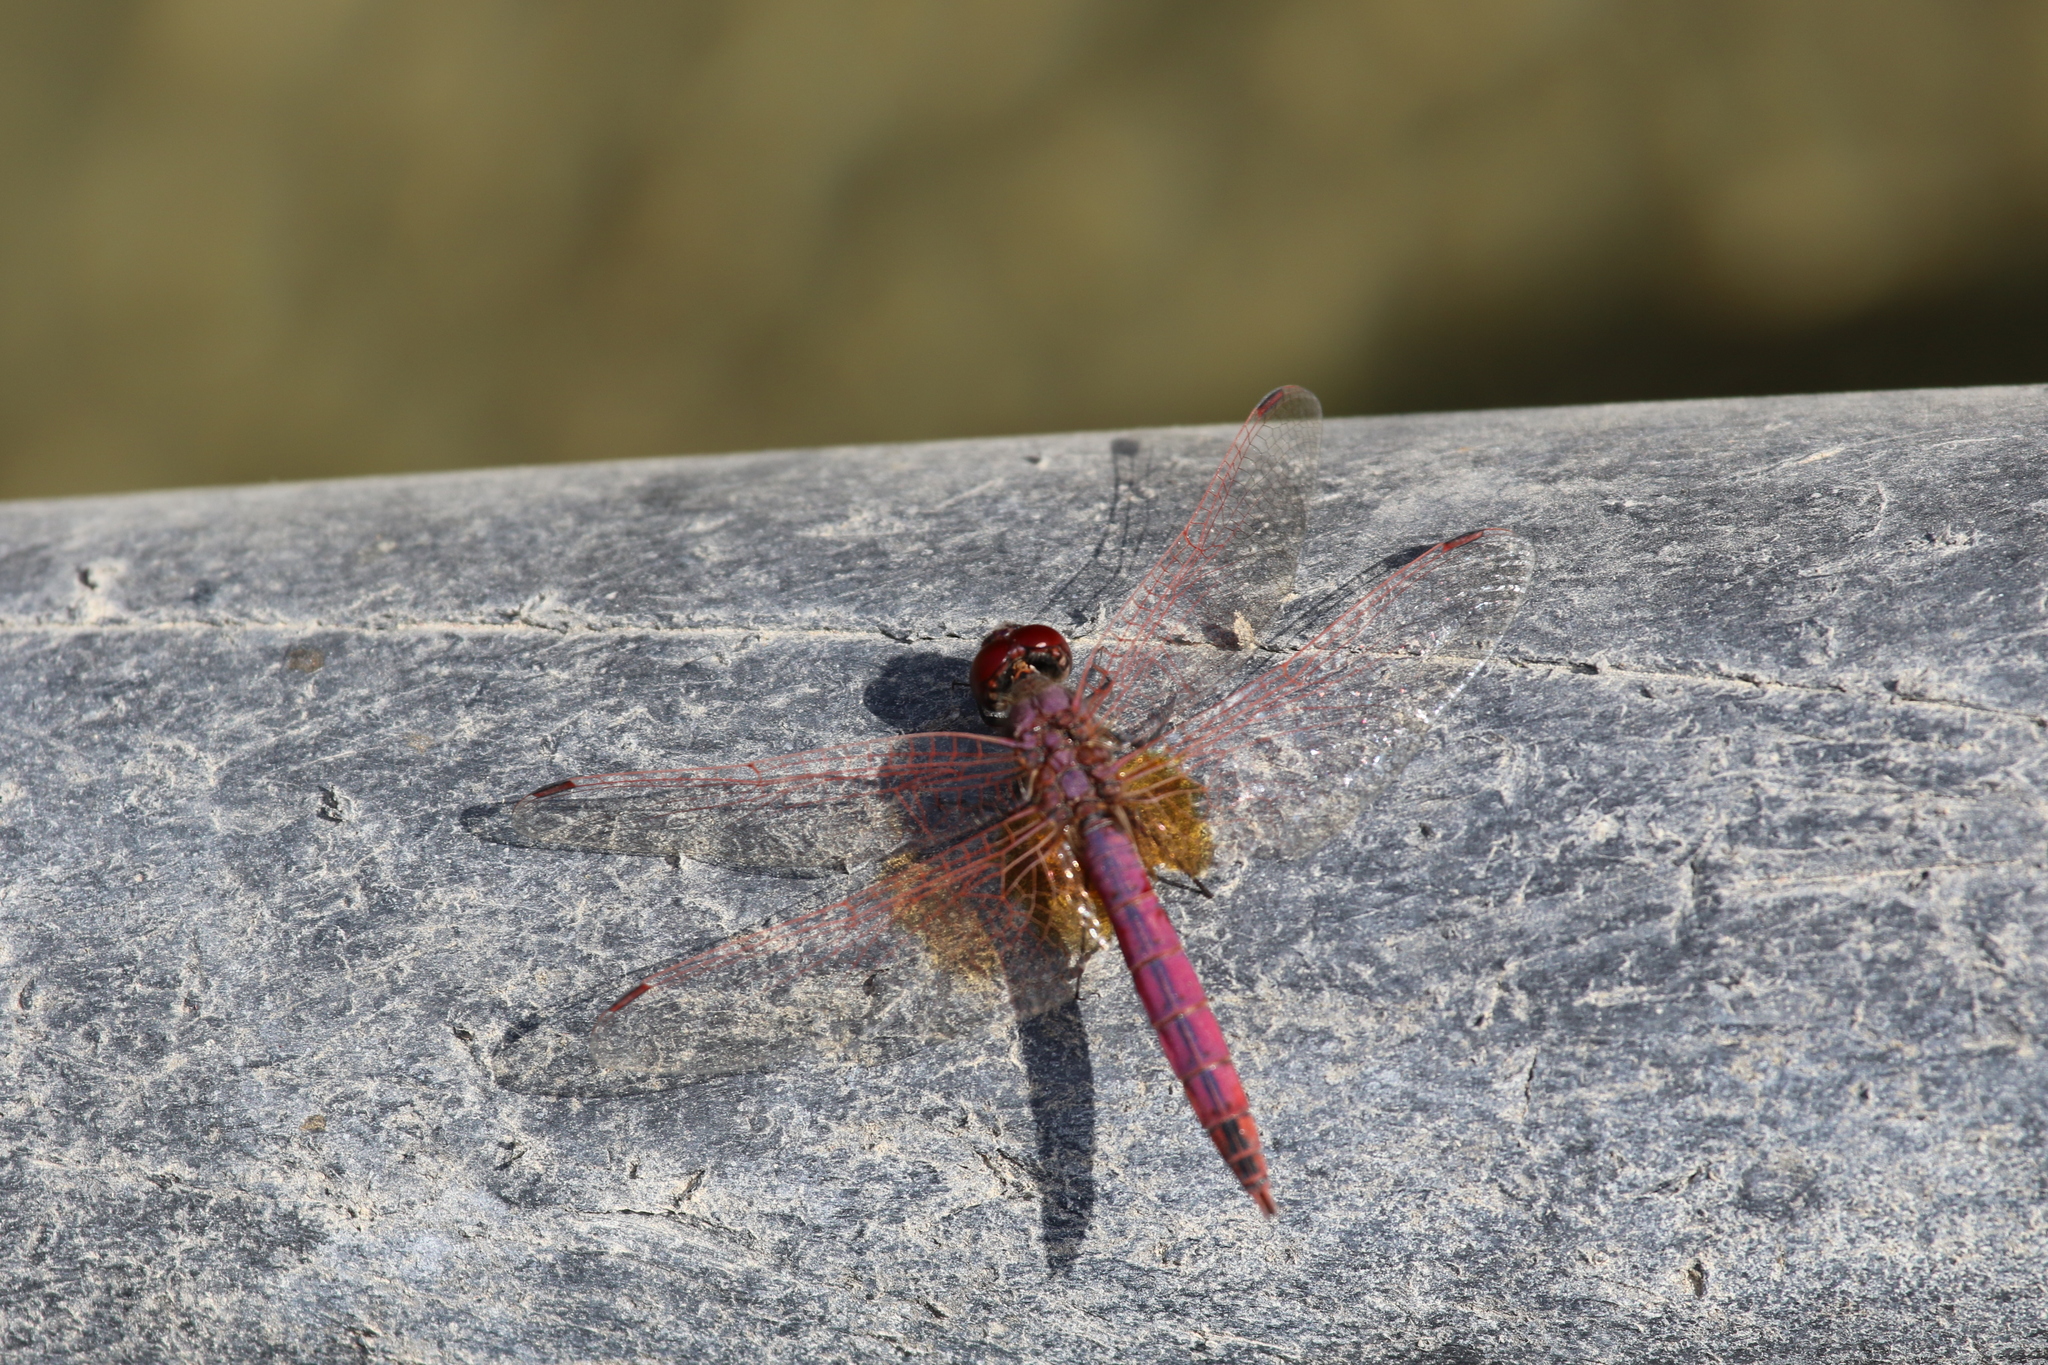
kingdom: Animalia
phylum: Arthropoda
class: Insecta
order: Odonata
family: Libellulidae
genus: Trithemis
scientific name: Trithemis annulata
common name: Violet dropwing
